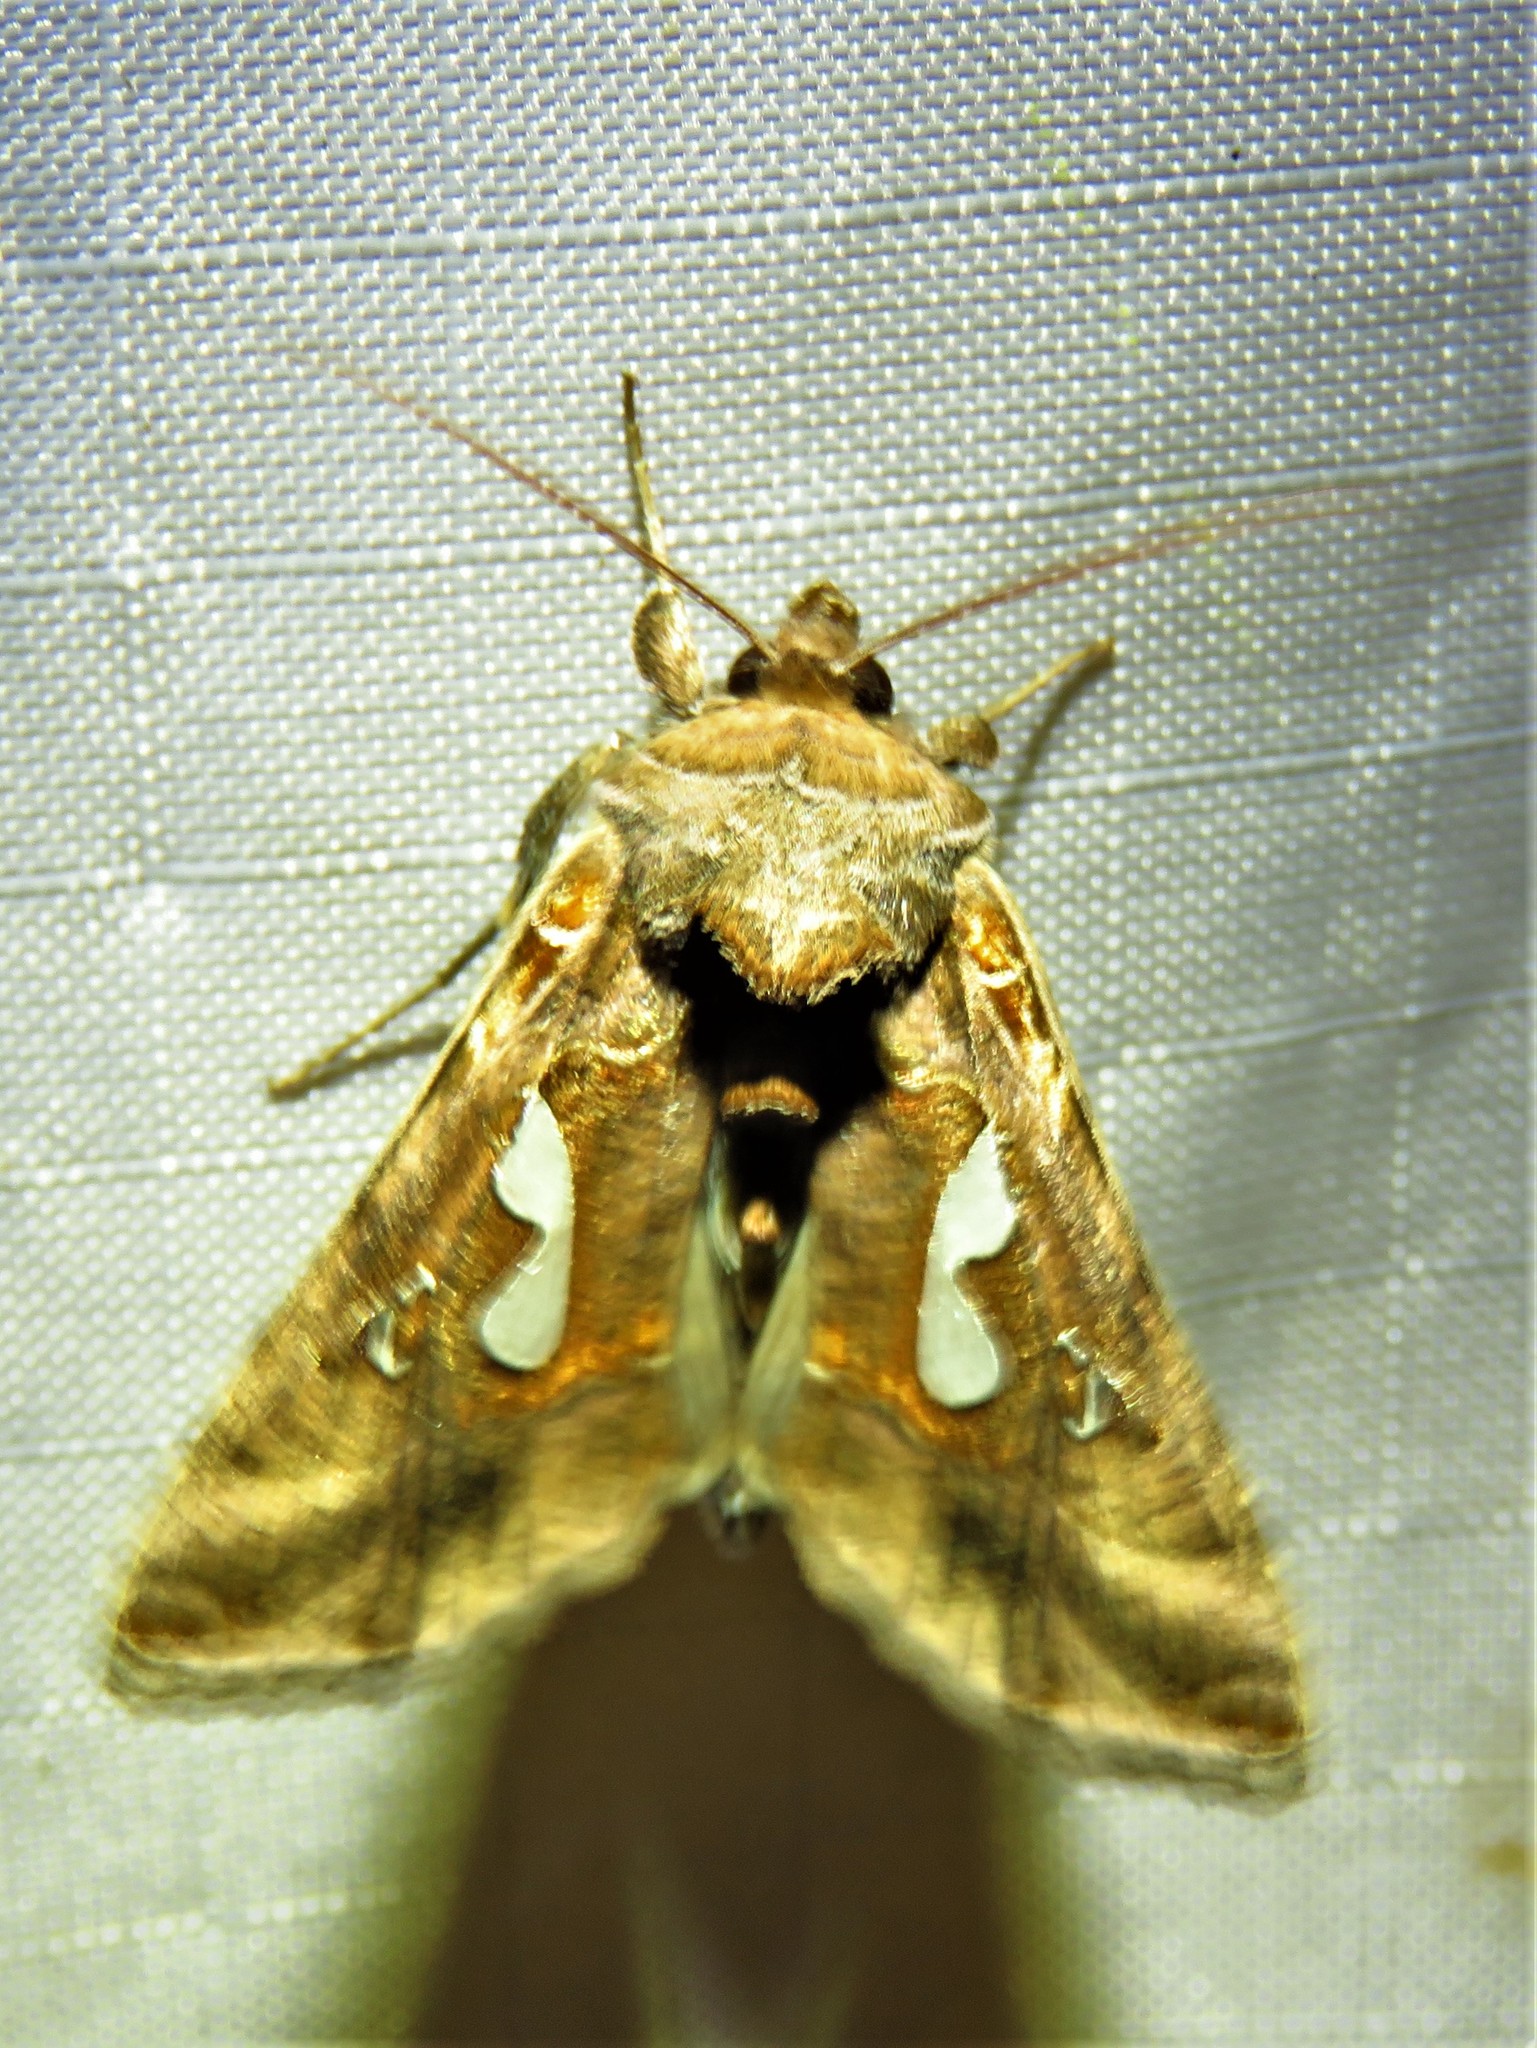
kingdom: Animalia
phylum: Arthropoda
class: Insecta
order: Lepidoptera
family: Noctuidae
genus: Megalographa
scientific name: Megalographa biloba
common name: Cutworm
